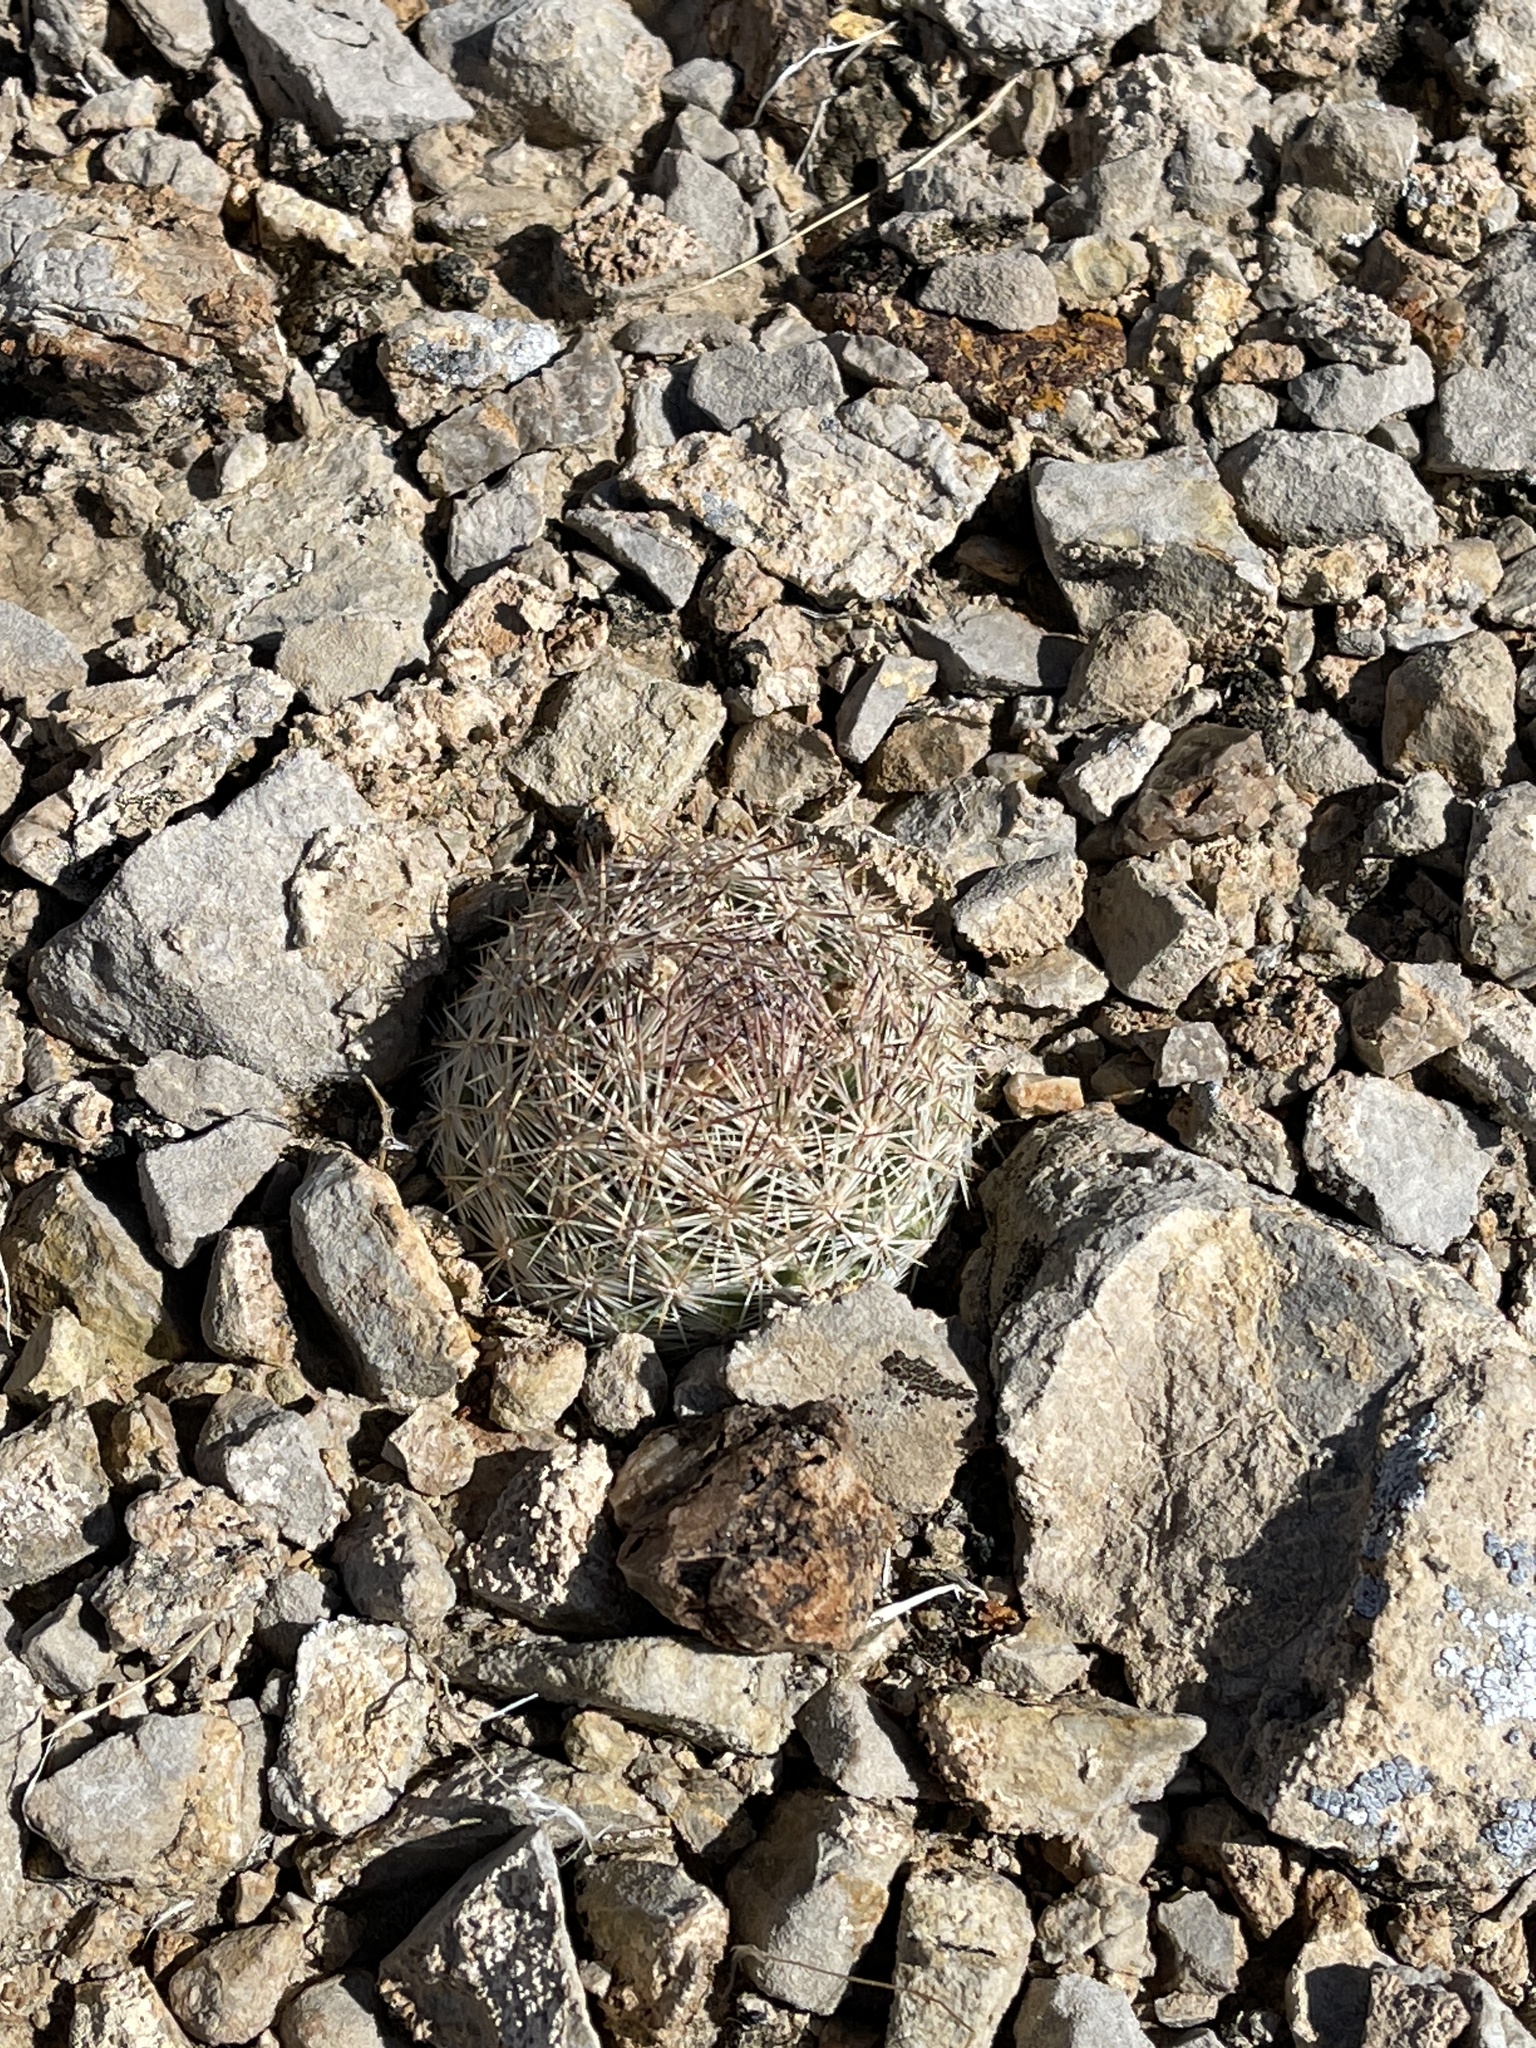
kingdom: Plantae
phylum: Tracheophyta
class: Magnoliopsida
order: Caryophyllales
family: Cactaceae
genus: Pelecyphora
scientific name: Pelecyphora vivipara
